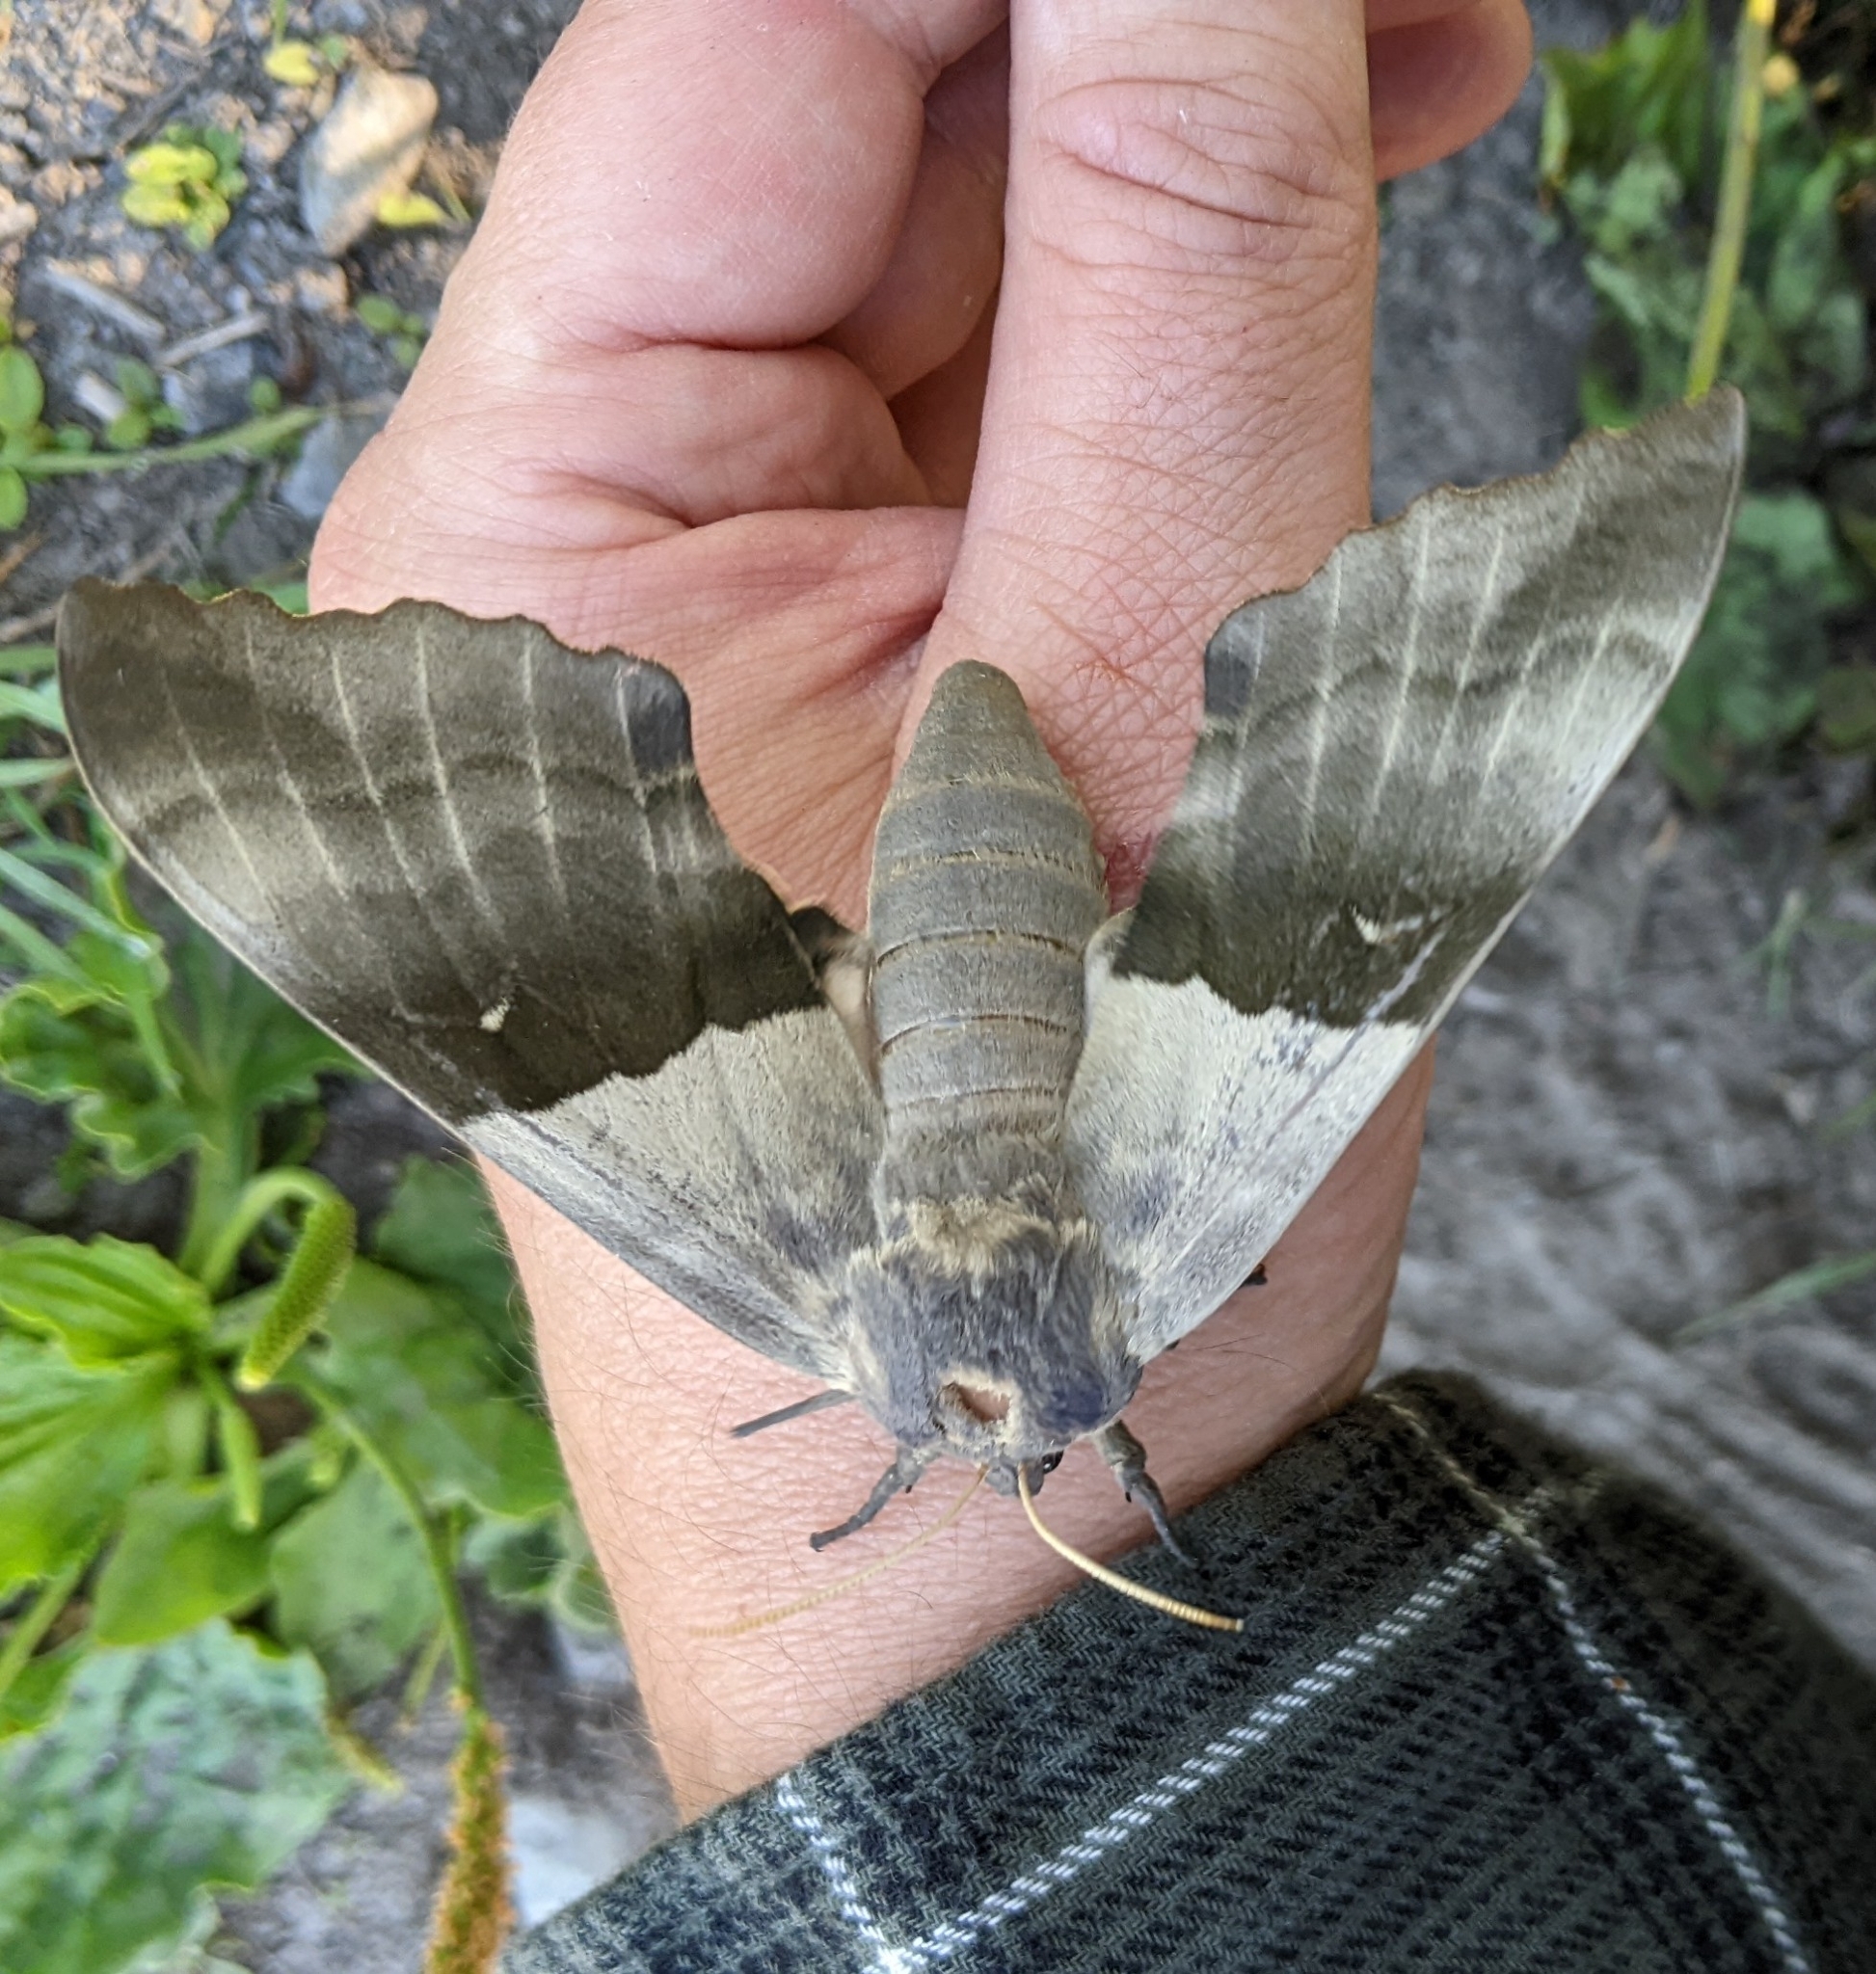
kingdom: Animalia
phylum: Arthropoda
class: Insecta
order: Lepidoptera
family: Sphingidae
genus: Pachysphinx
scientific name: Pachysphinx modesta
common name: Big poplar sphinx
